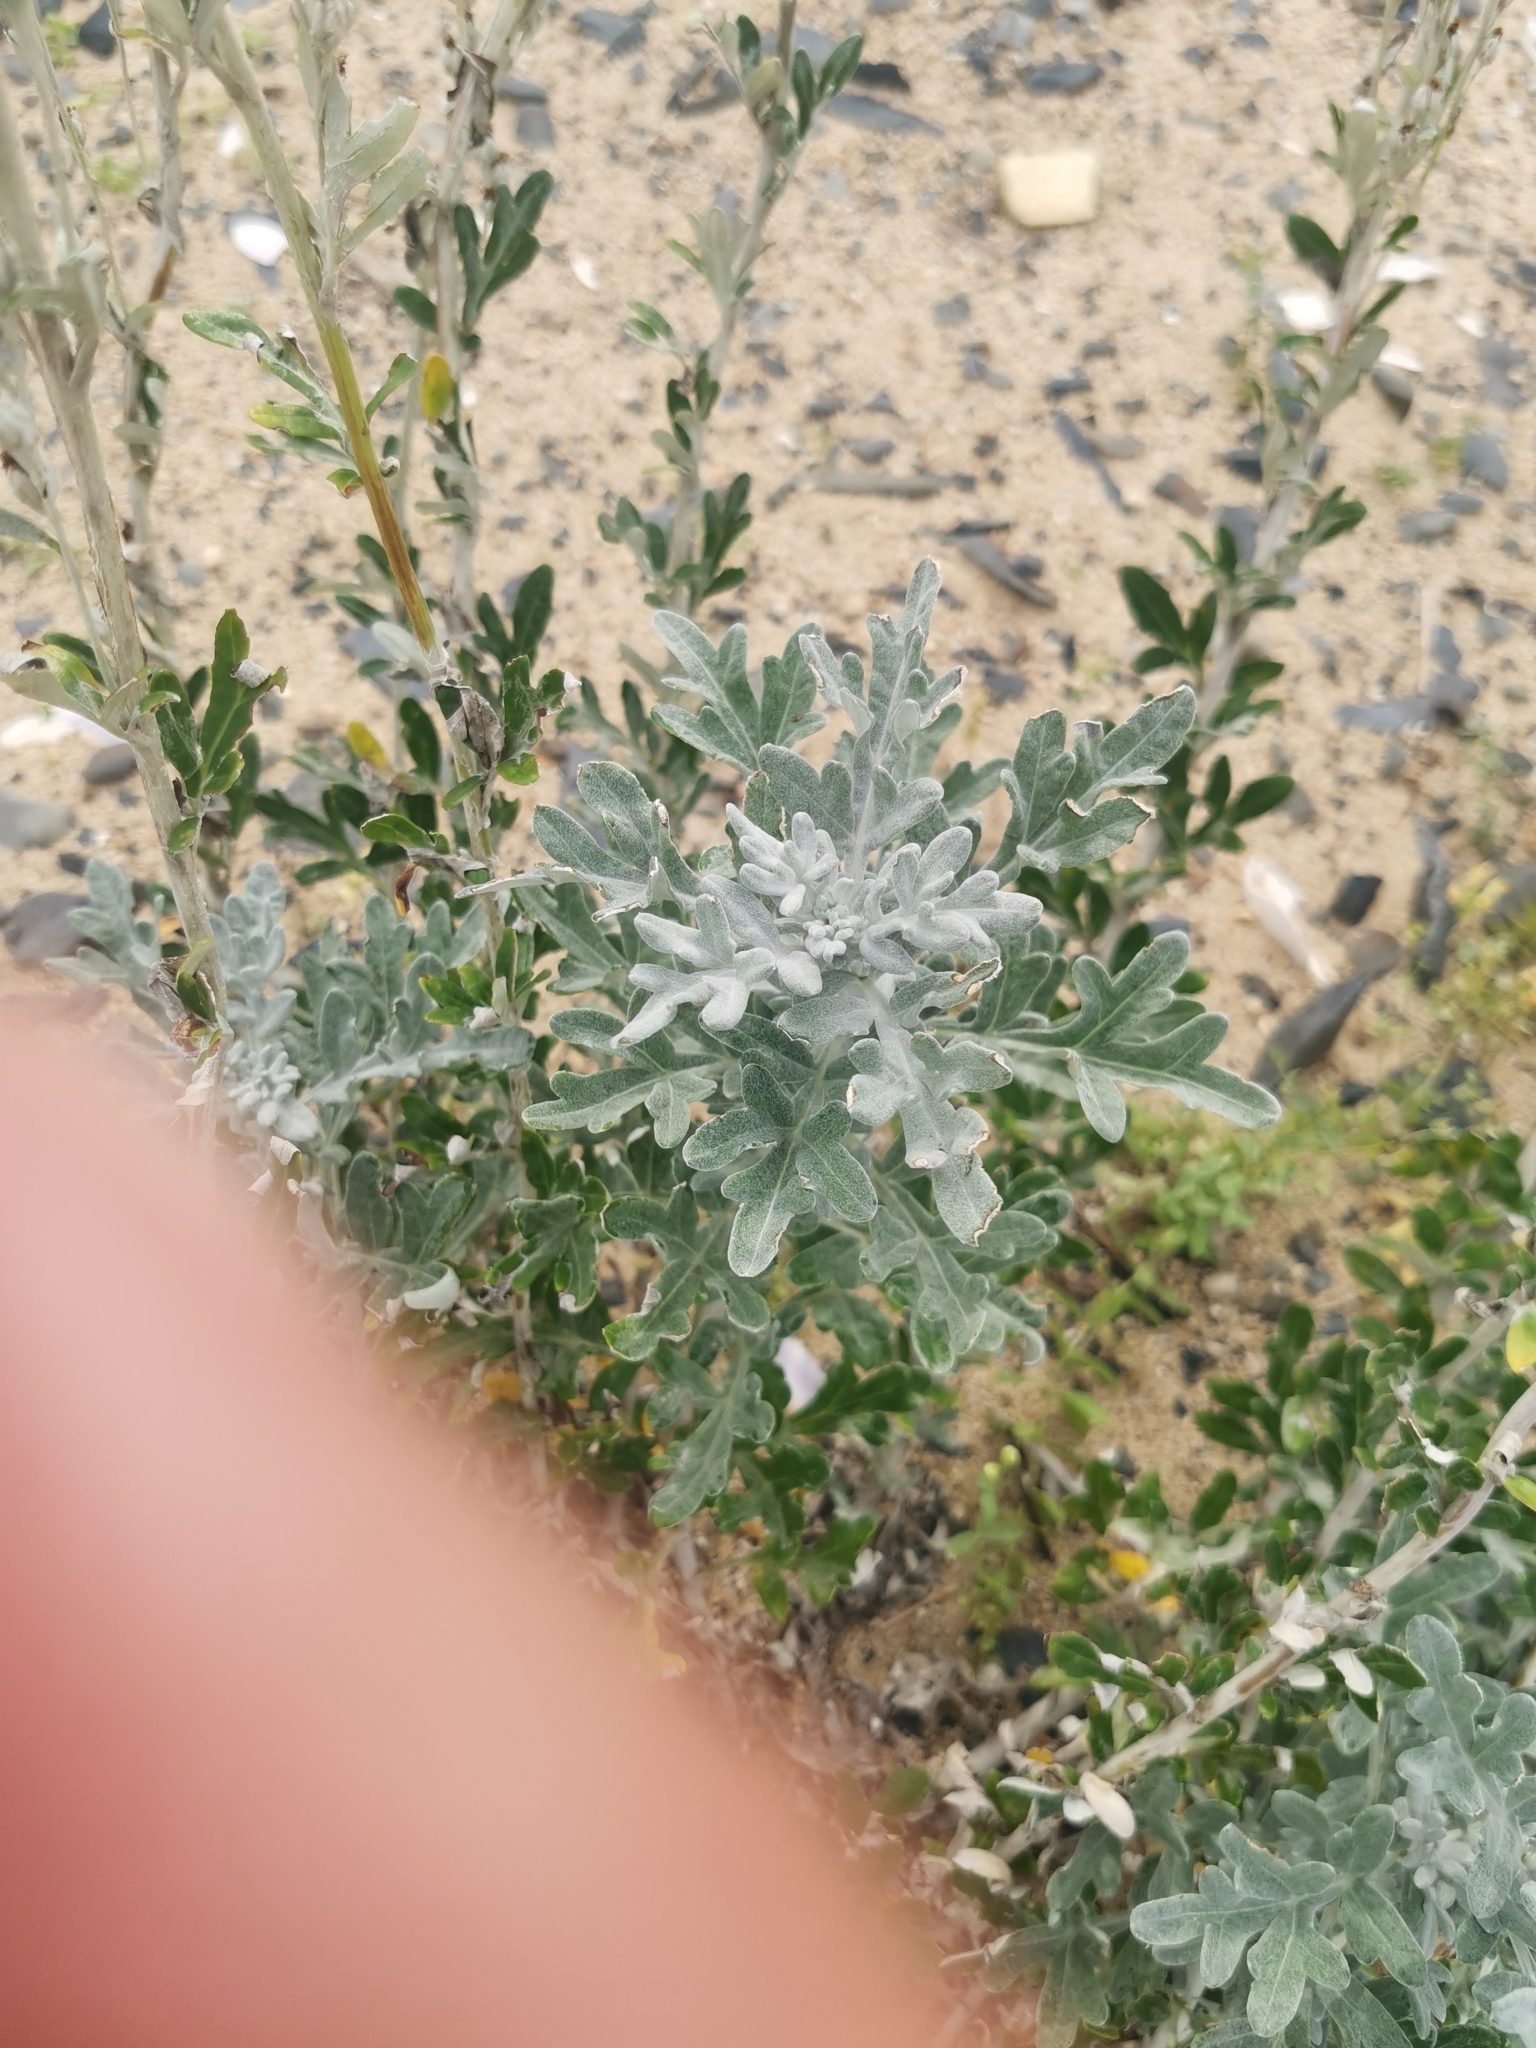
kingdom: Plantae
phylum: Tracheophyta
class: Magnoliopsida
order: Asterales
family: Asteraceae
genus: Artemisia
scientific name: Artemisia stelleriana
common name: Beach wormwood
